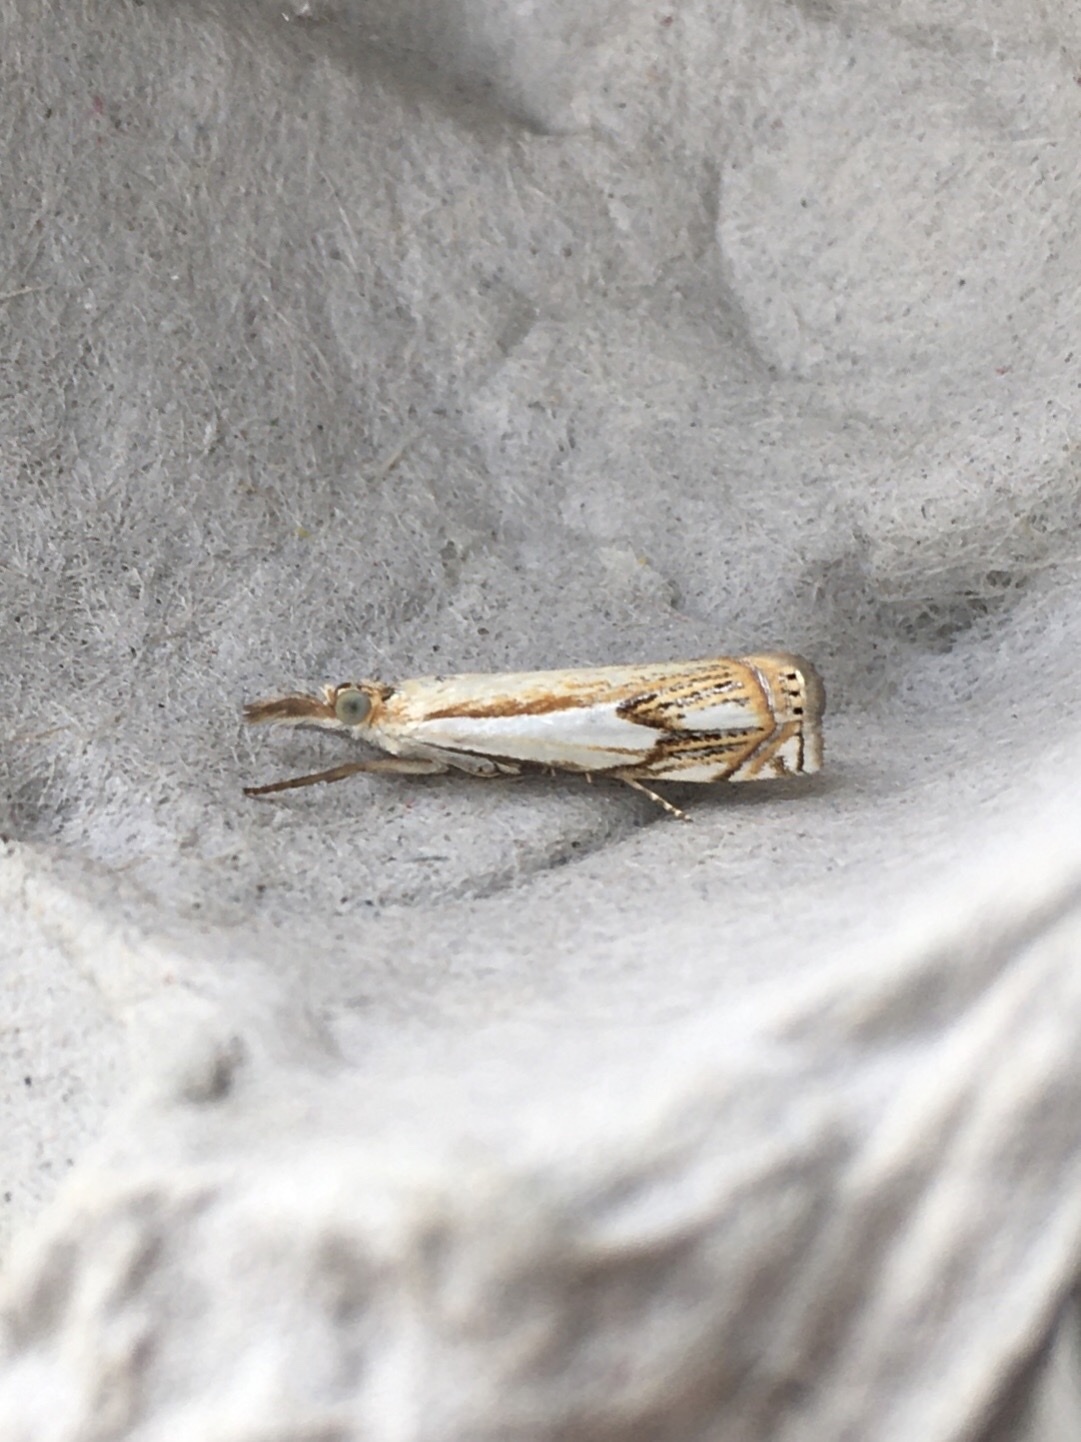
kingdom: Animalia
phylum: Arthropoda
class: Insecta
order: Lepidoptera
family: Crambidae
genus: Crambus
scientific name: Crambus agitatellus
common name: Double-banded grass-veneer
